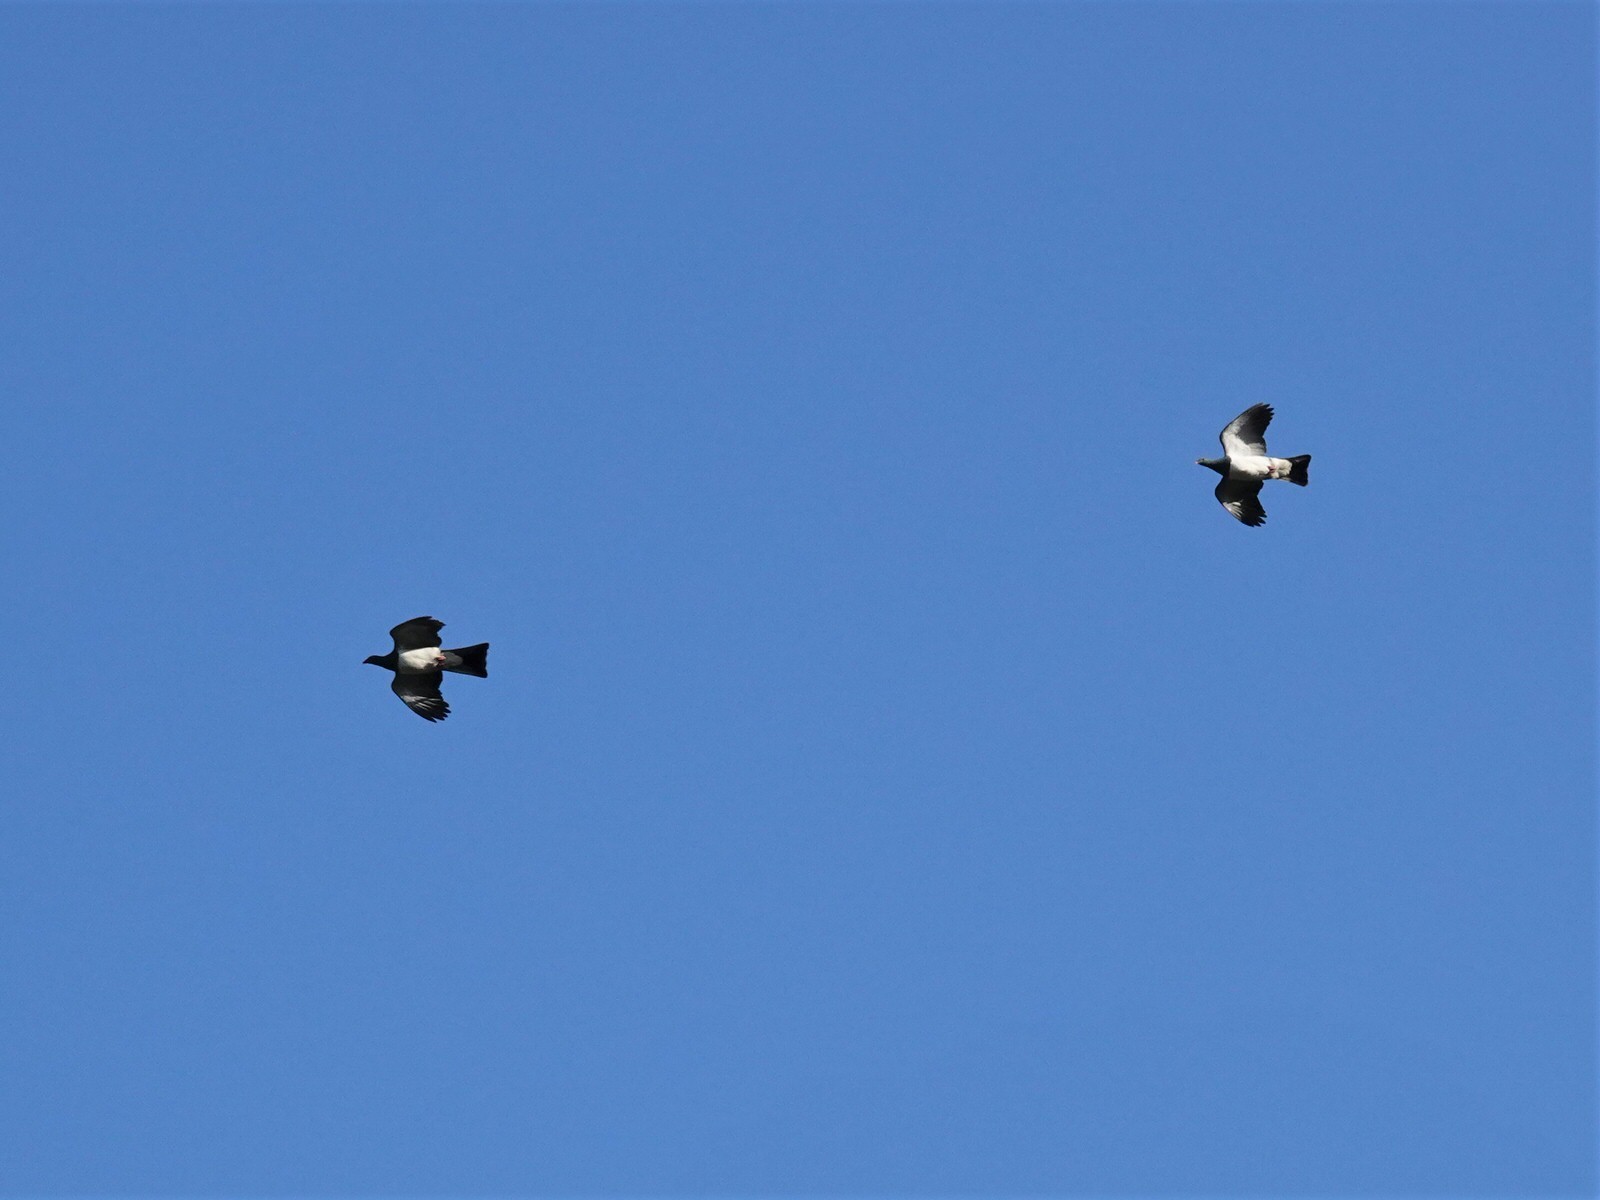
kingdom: Animalia
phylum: Chordata
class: Aves
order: Columbiformes
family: Columbidae
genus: Hemiphaga
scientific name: Hemiphaga novaeseelandiae
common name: New zealand pigeon
